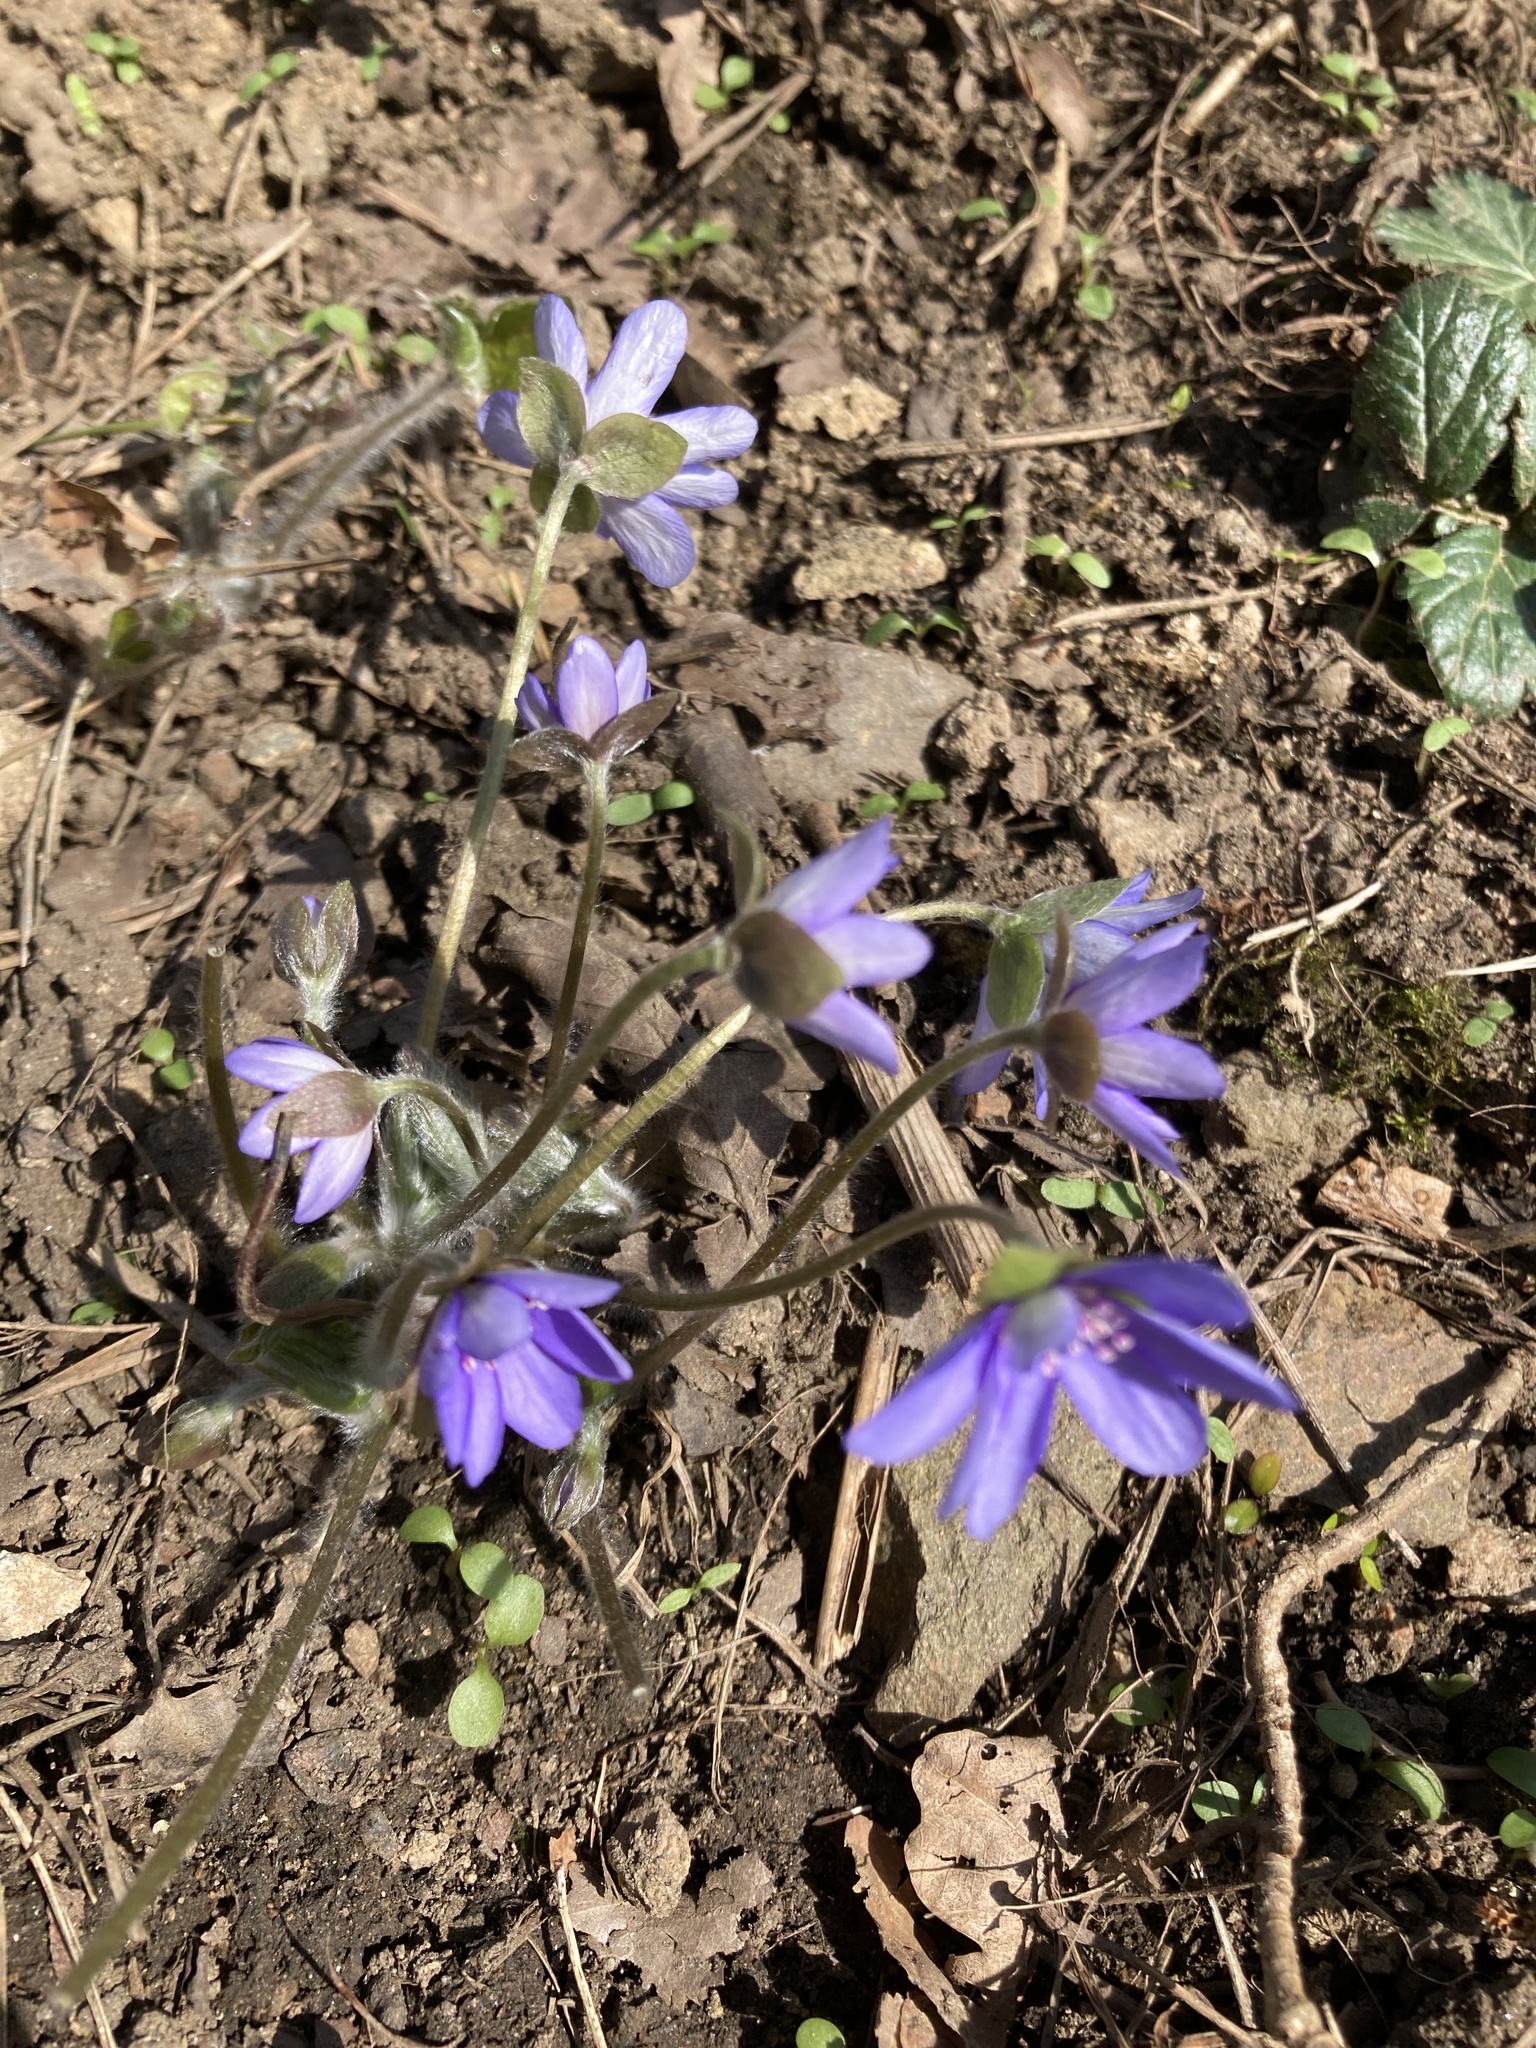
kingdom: Plantae
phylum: Tracheophyta
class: Magnoliopsida
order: Ranunculales
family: Ranunculaceae
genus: Hepatica
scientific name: Hepatica nobilis
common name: Liverleaf
